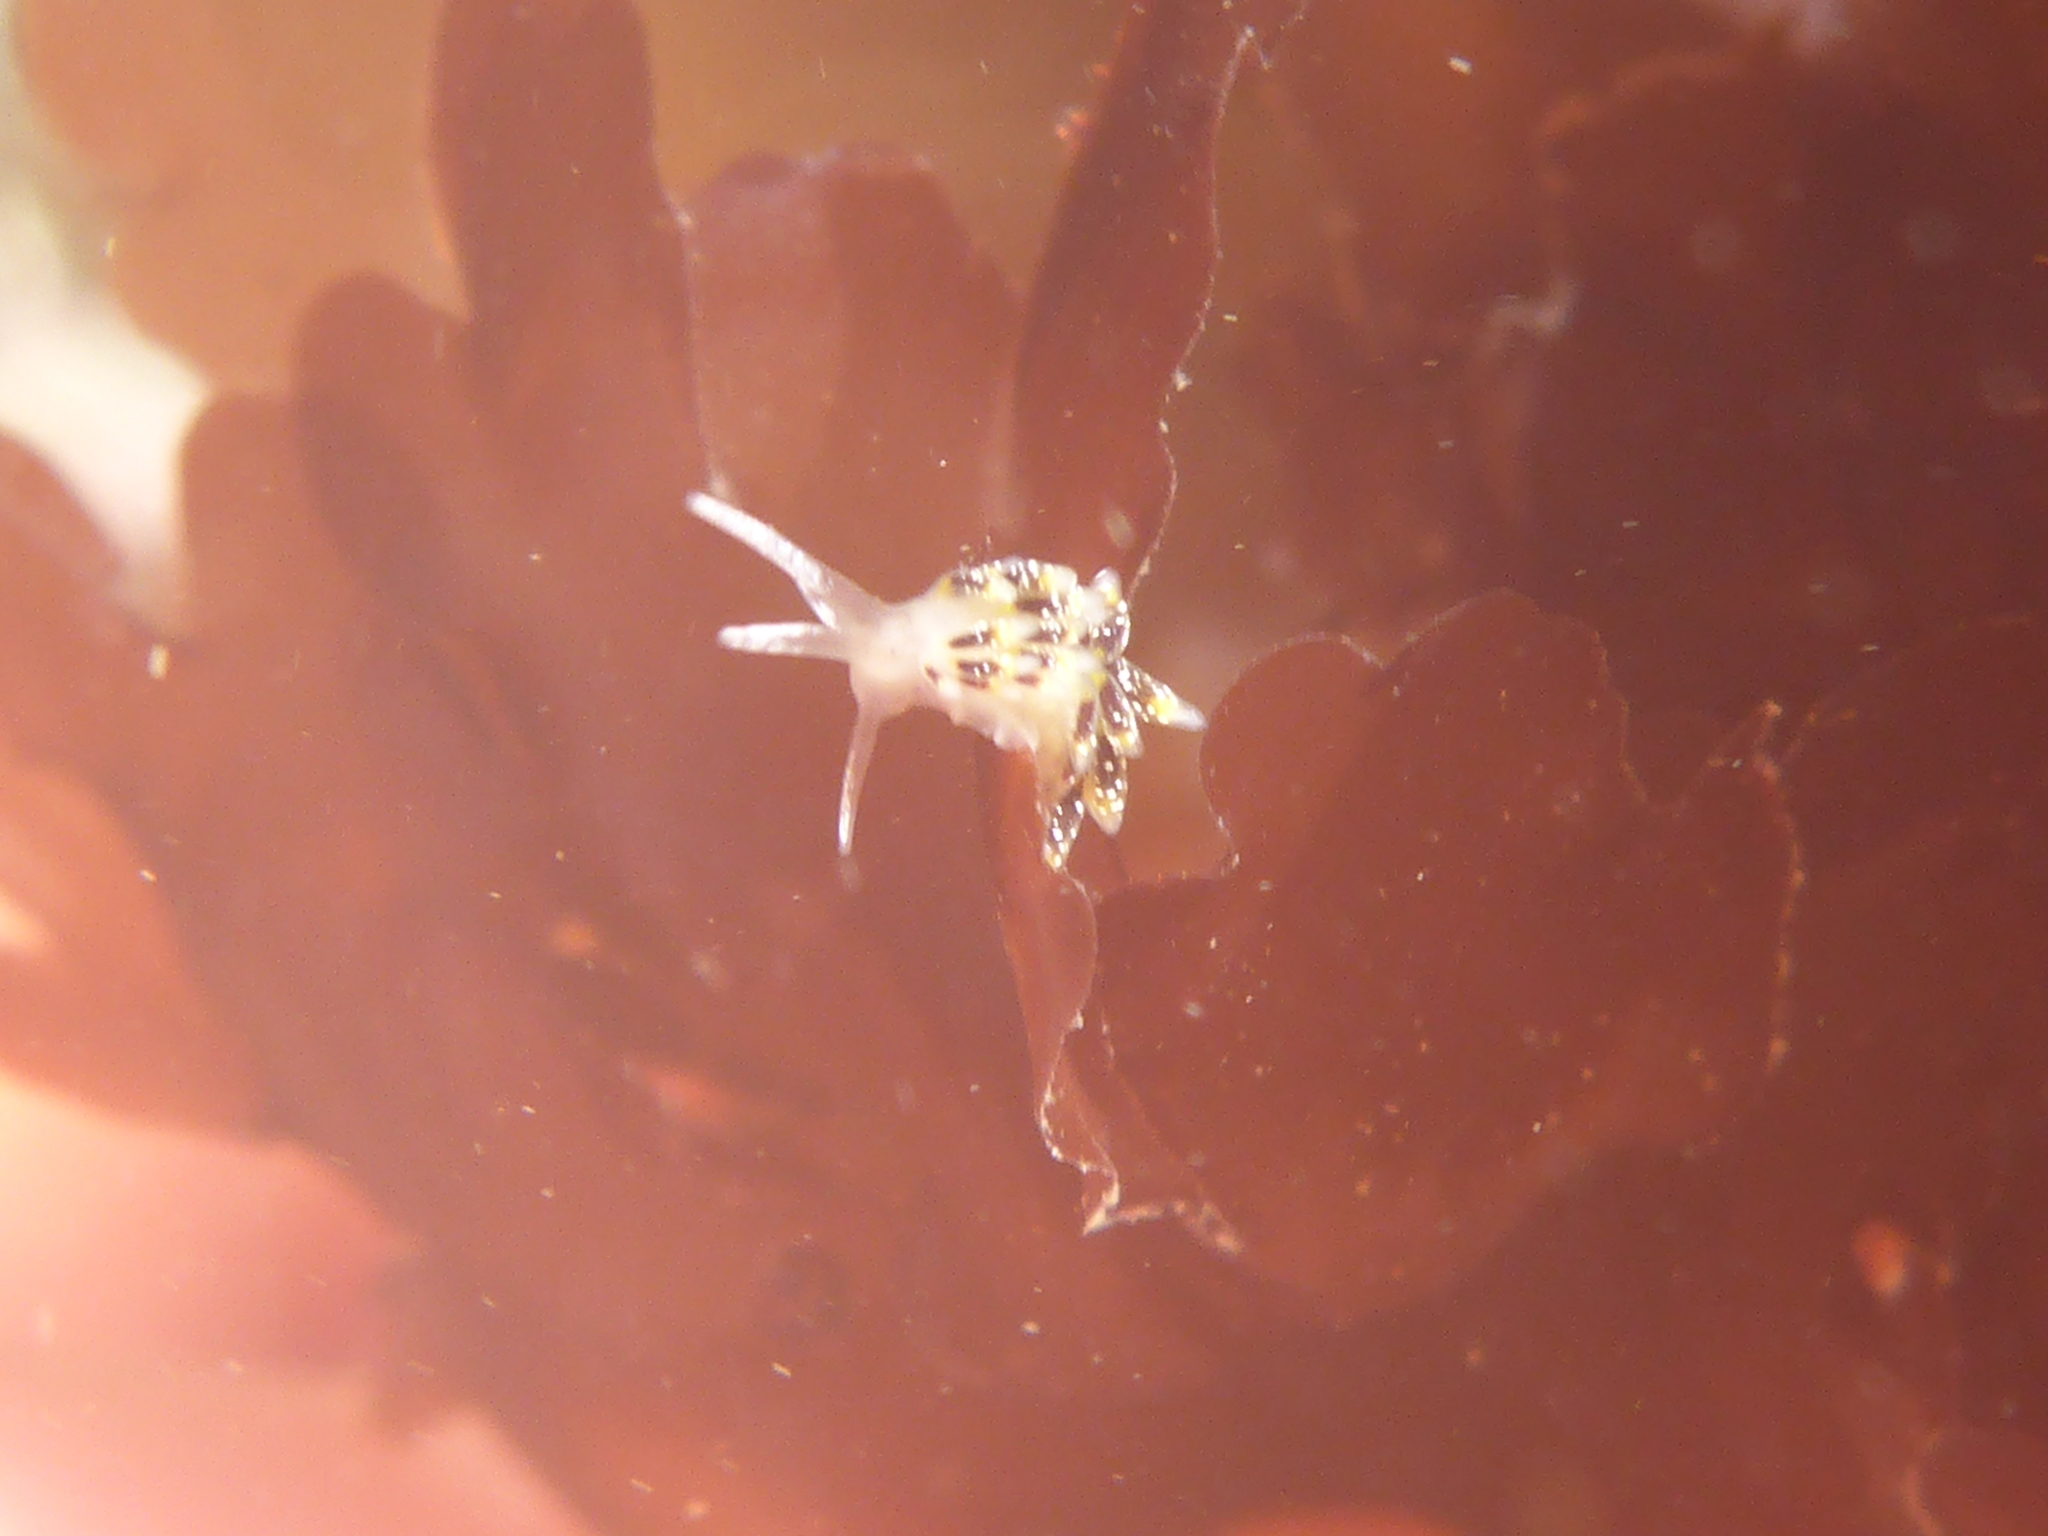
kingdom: Animalia
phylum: Mollusca
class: Gastropoda
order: Nudibranchia
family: Trinchesiidae
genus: Zelentia
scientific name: Zelentia fulgens
